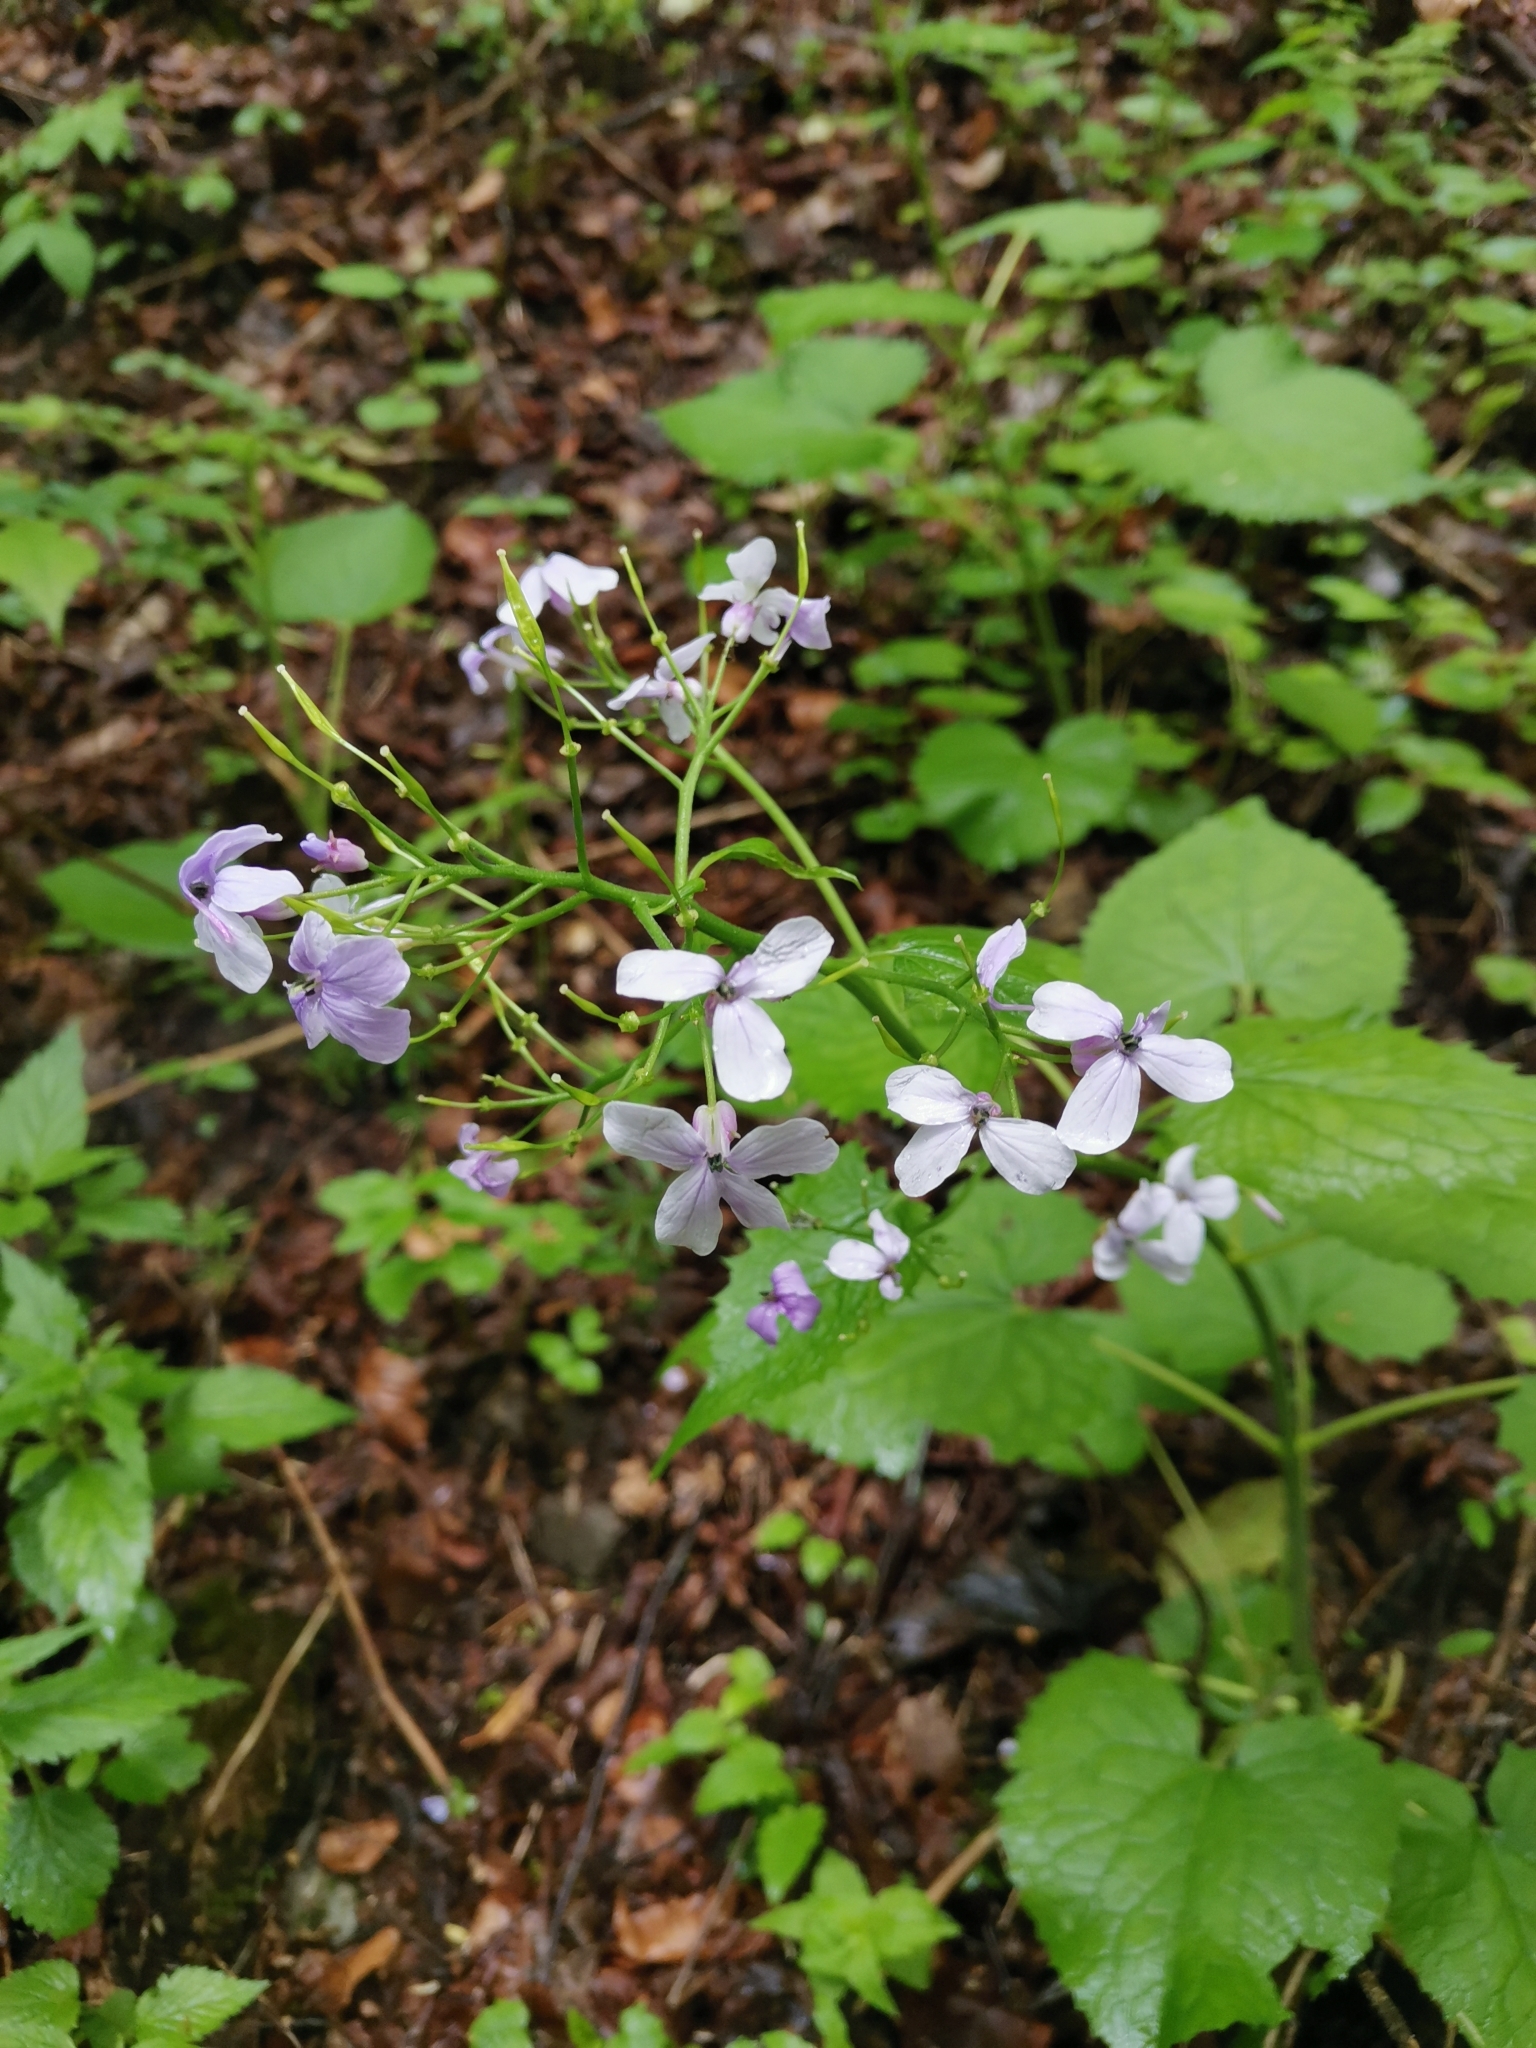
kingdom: Plantae
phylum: Tracheophyta
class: Magnoliopsida
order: Brassicales
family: Brassicaceae
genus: Lunaria
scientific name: Lunaria rediviva
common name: Perennial honesty
